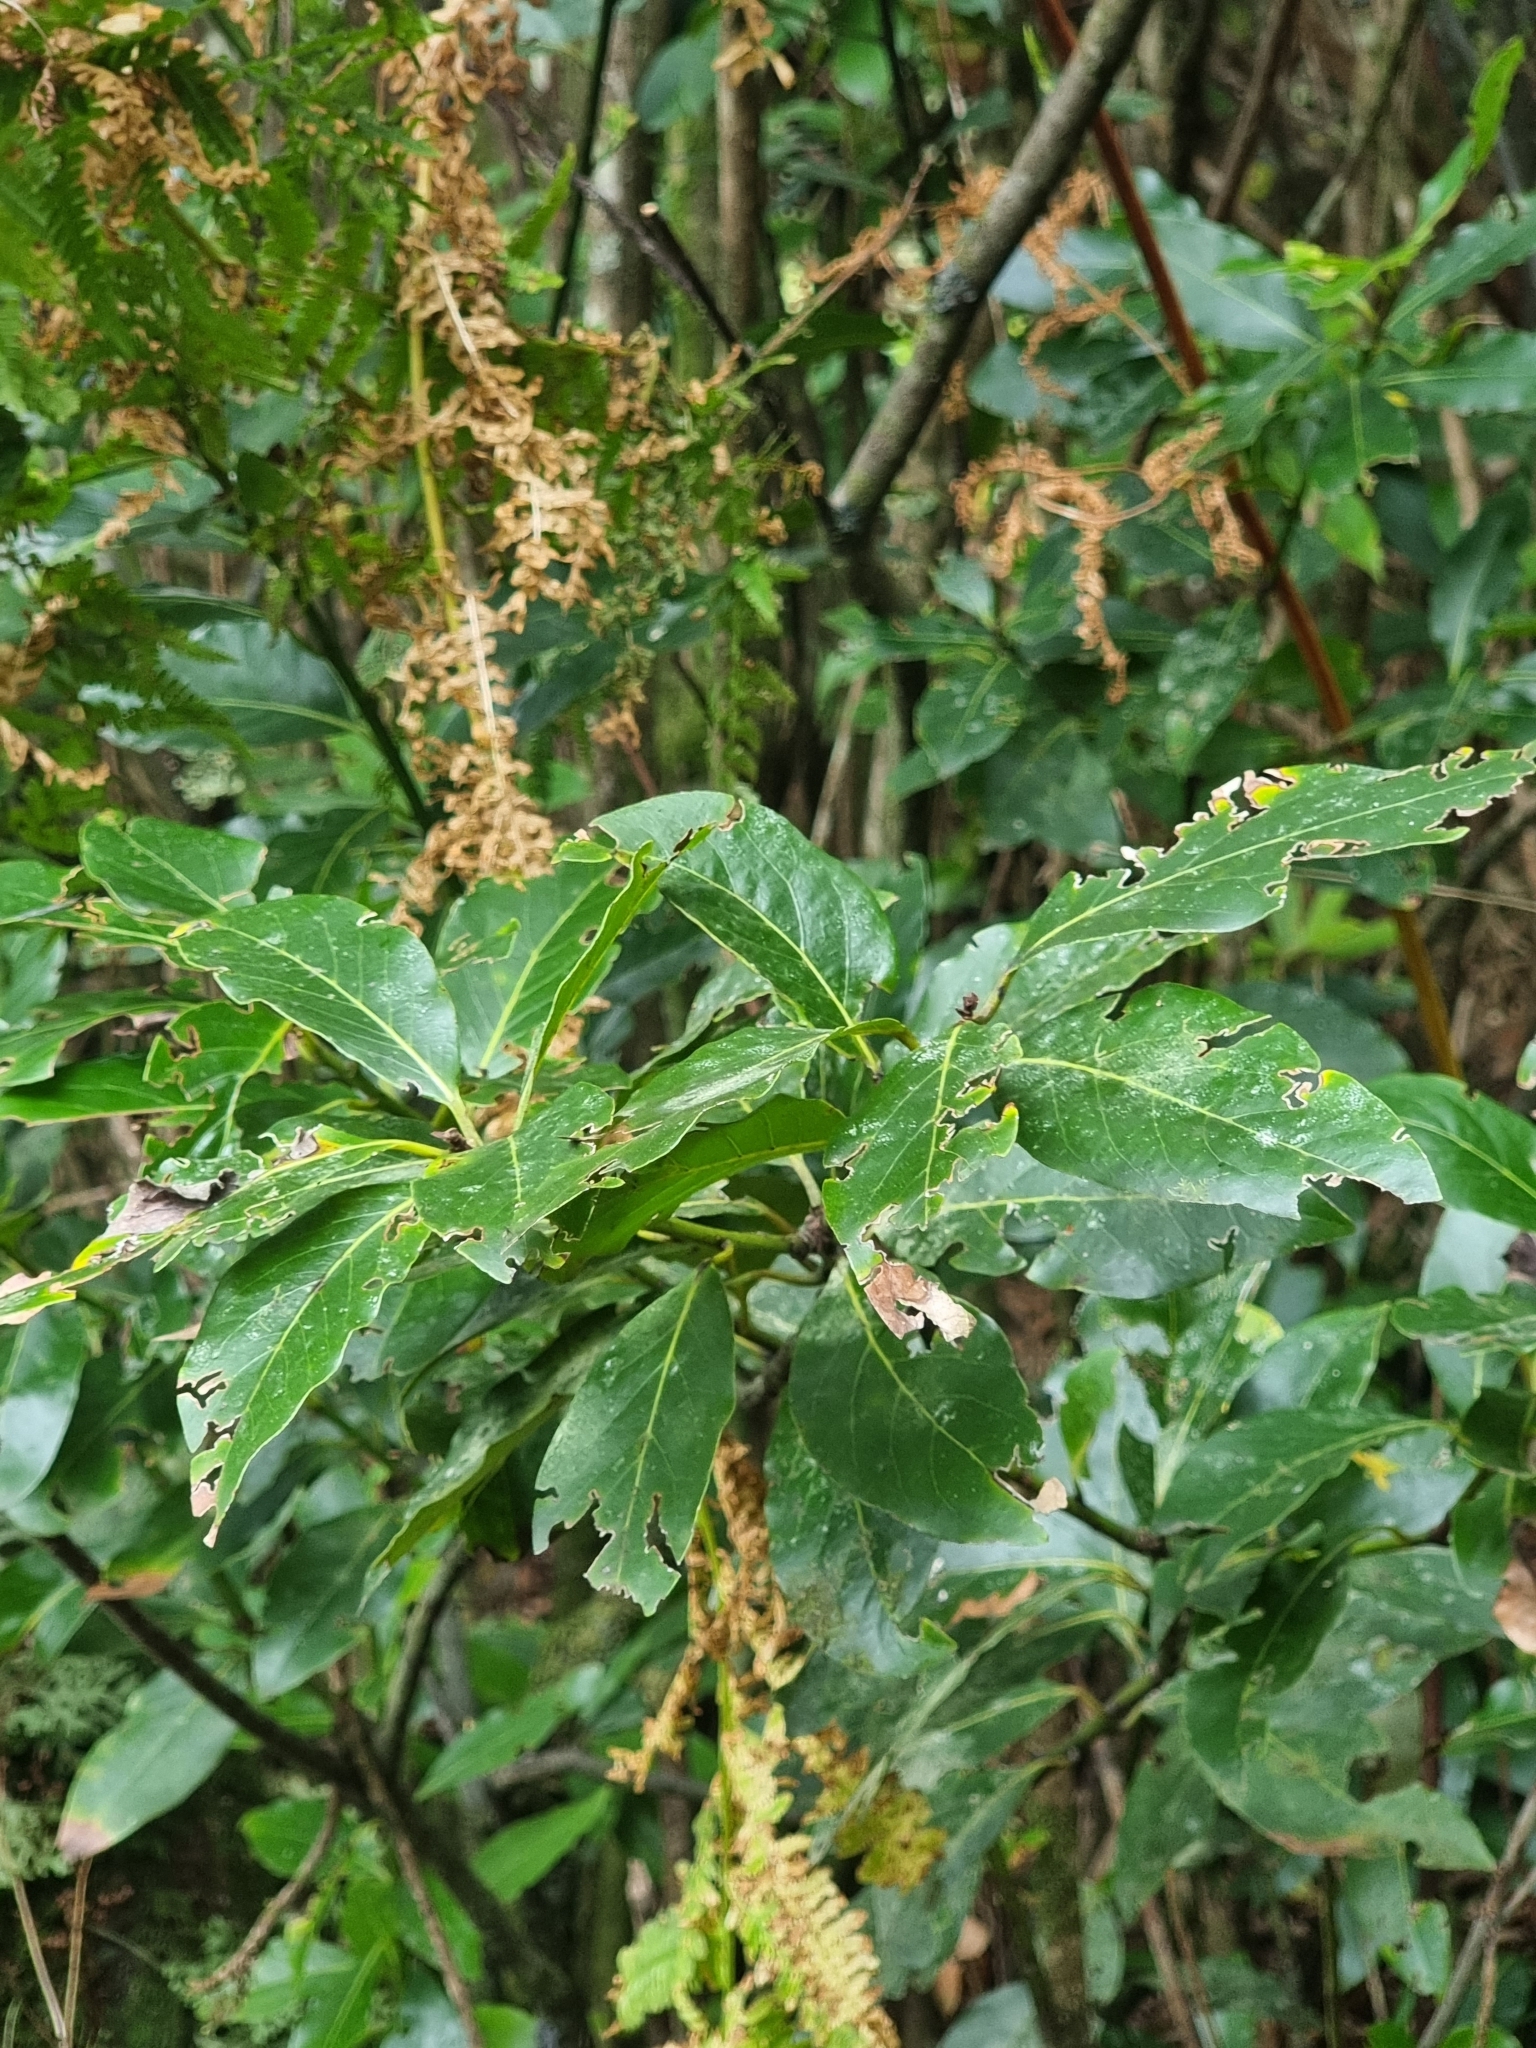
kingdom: Plantae
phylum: Tracheophyta
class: Magnoliopsida
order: Laurales
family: Lauraceae
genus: Laurus
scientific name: Laurus novocanariensis
